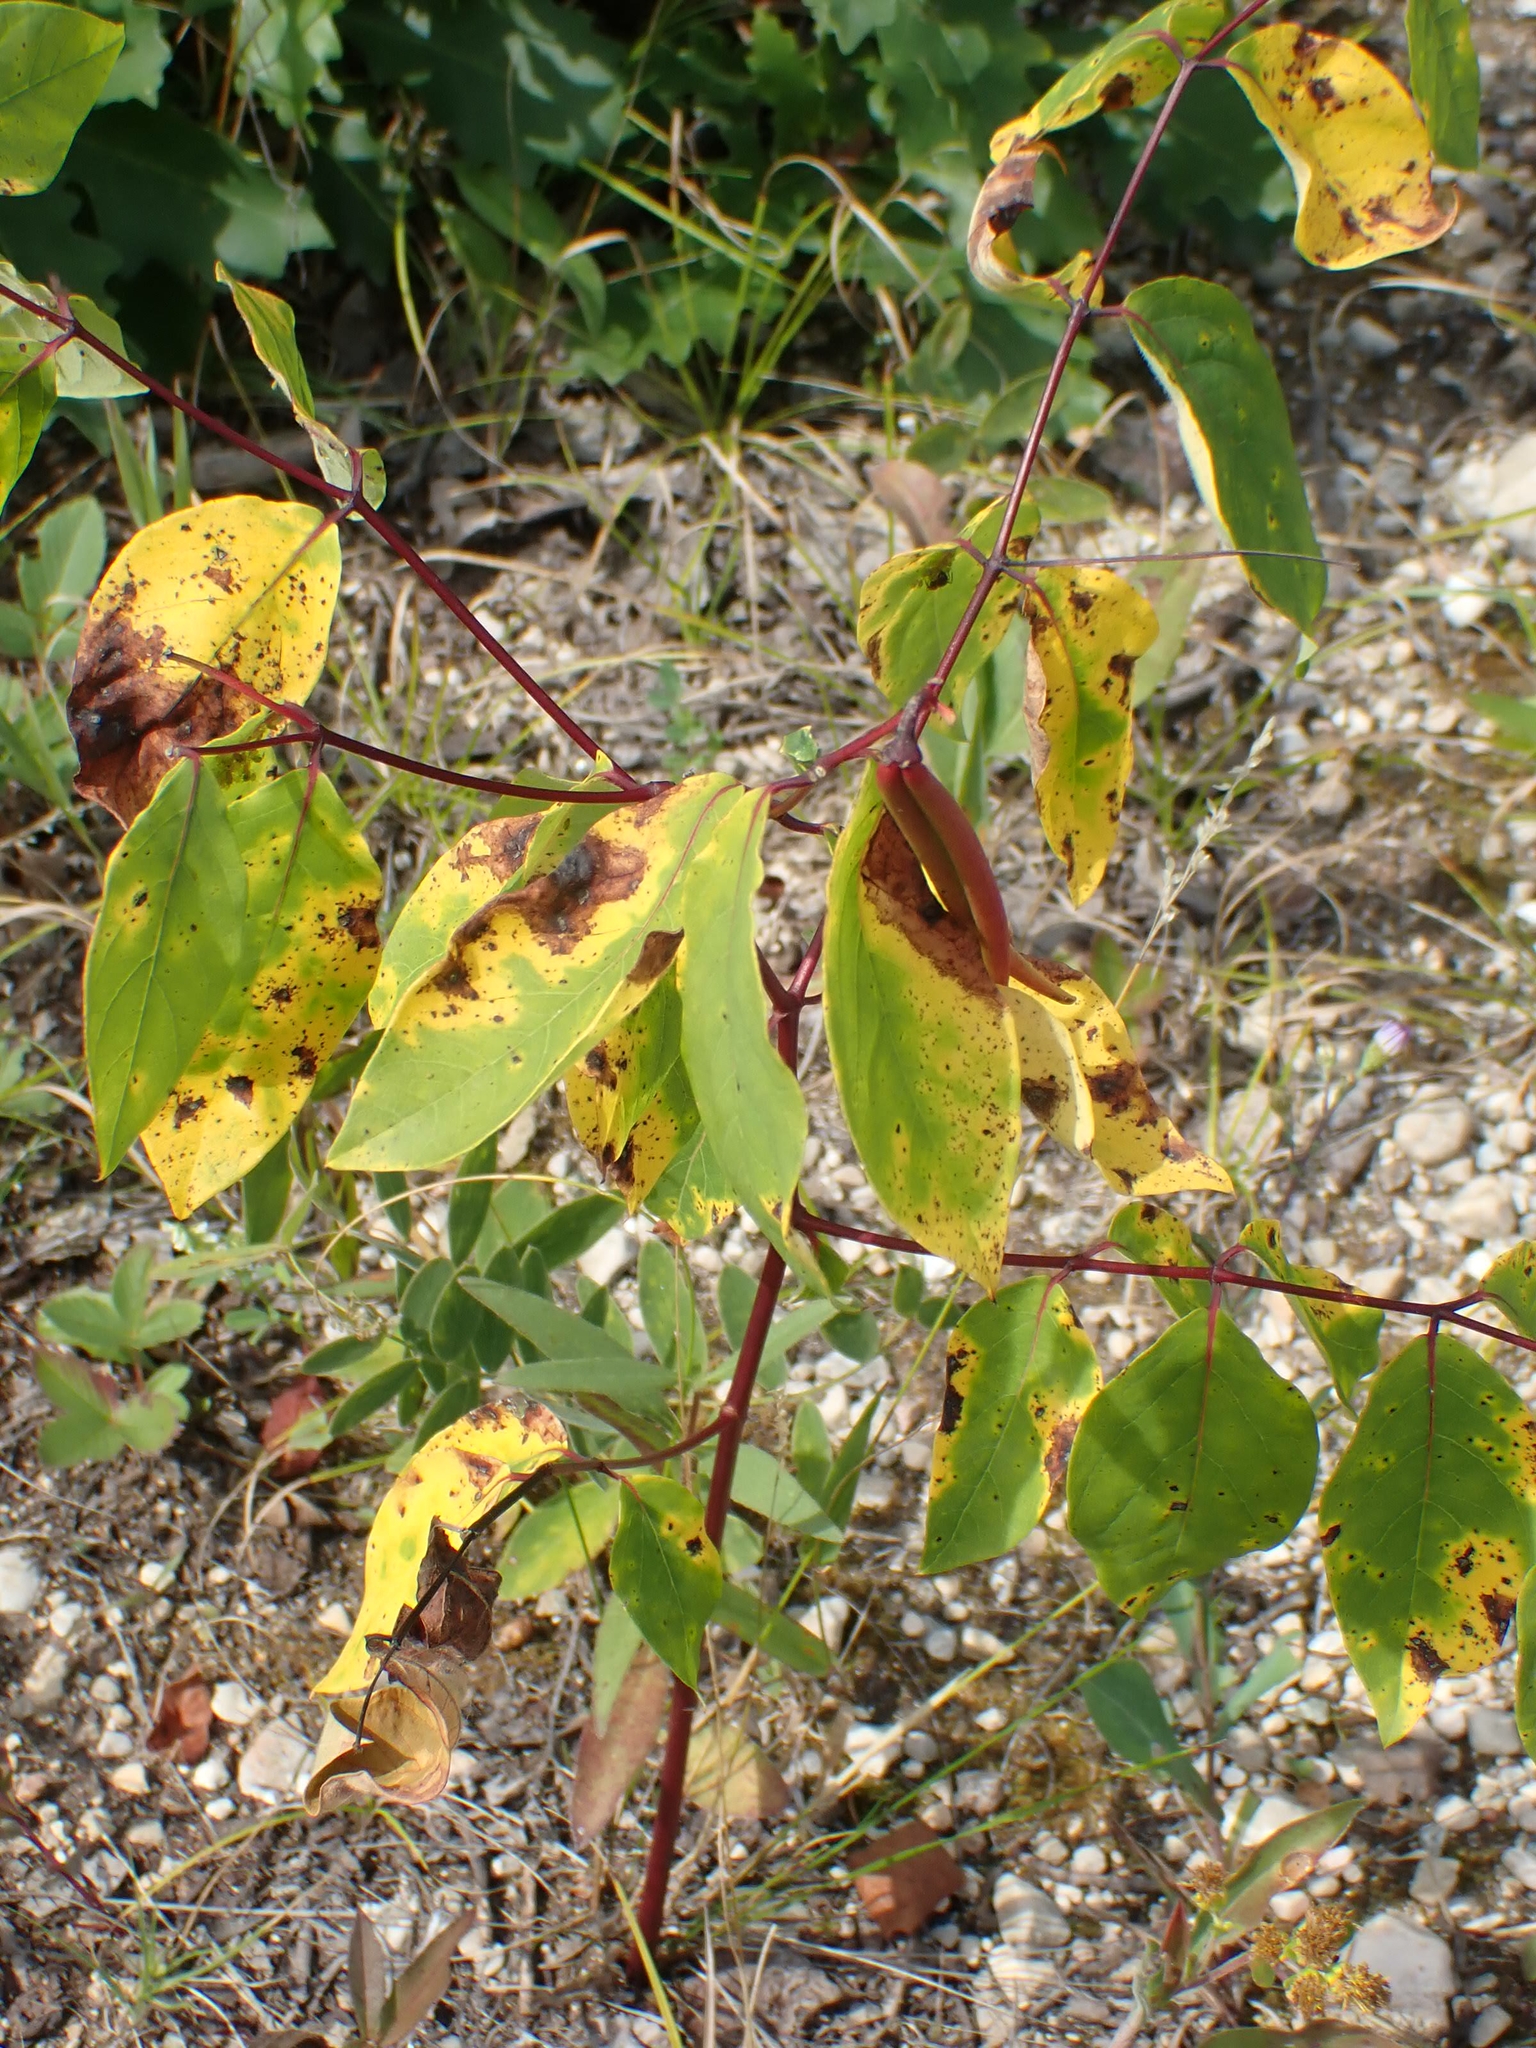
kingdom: Plantae
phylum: Tracheophyta
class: Magnoliopsida
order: Gentianales
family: Apocynaceae
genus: Apocynum
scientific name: Apocynum androsaemifolium
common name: Spreading dogbane
